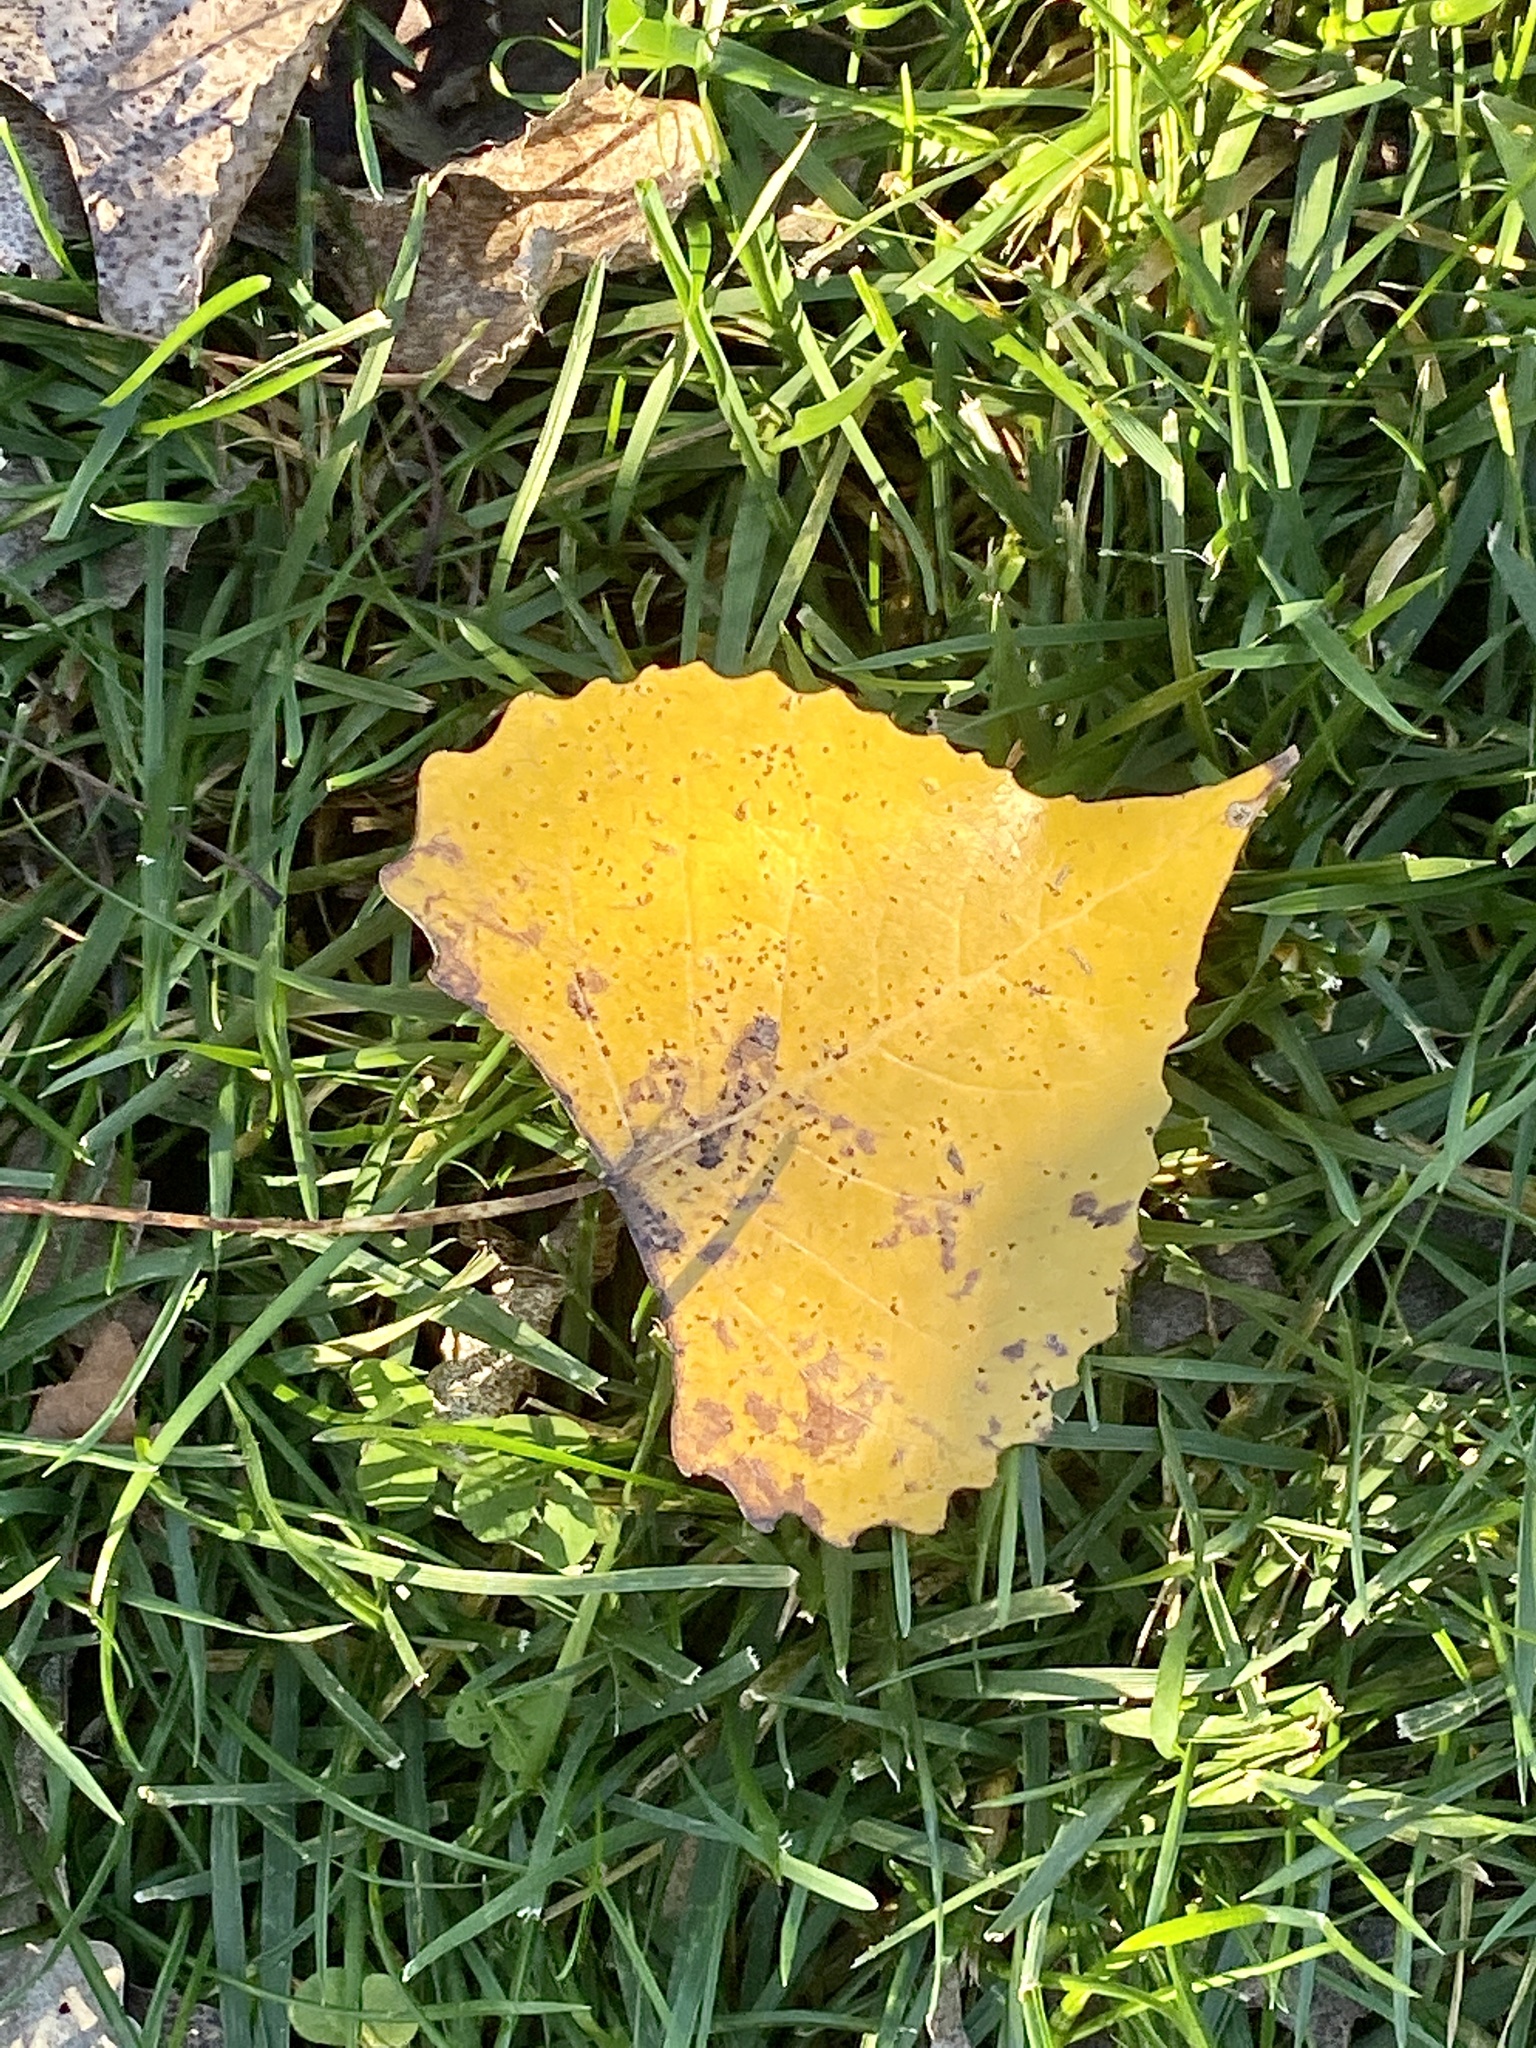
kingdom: Plantae
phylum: Tracheophyta
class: Magnoliopsida
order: Malpighiales
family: Salicaceae
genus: Populus
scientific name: Populus deltoides
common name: Eastern cottonwood
